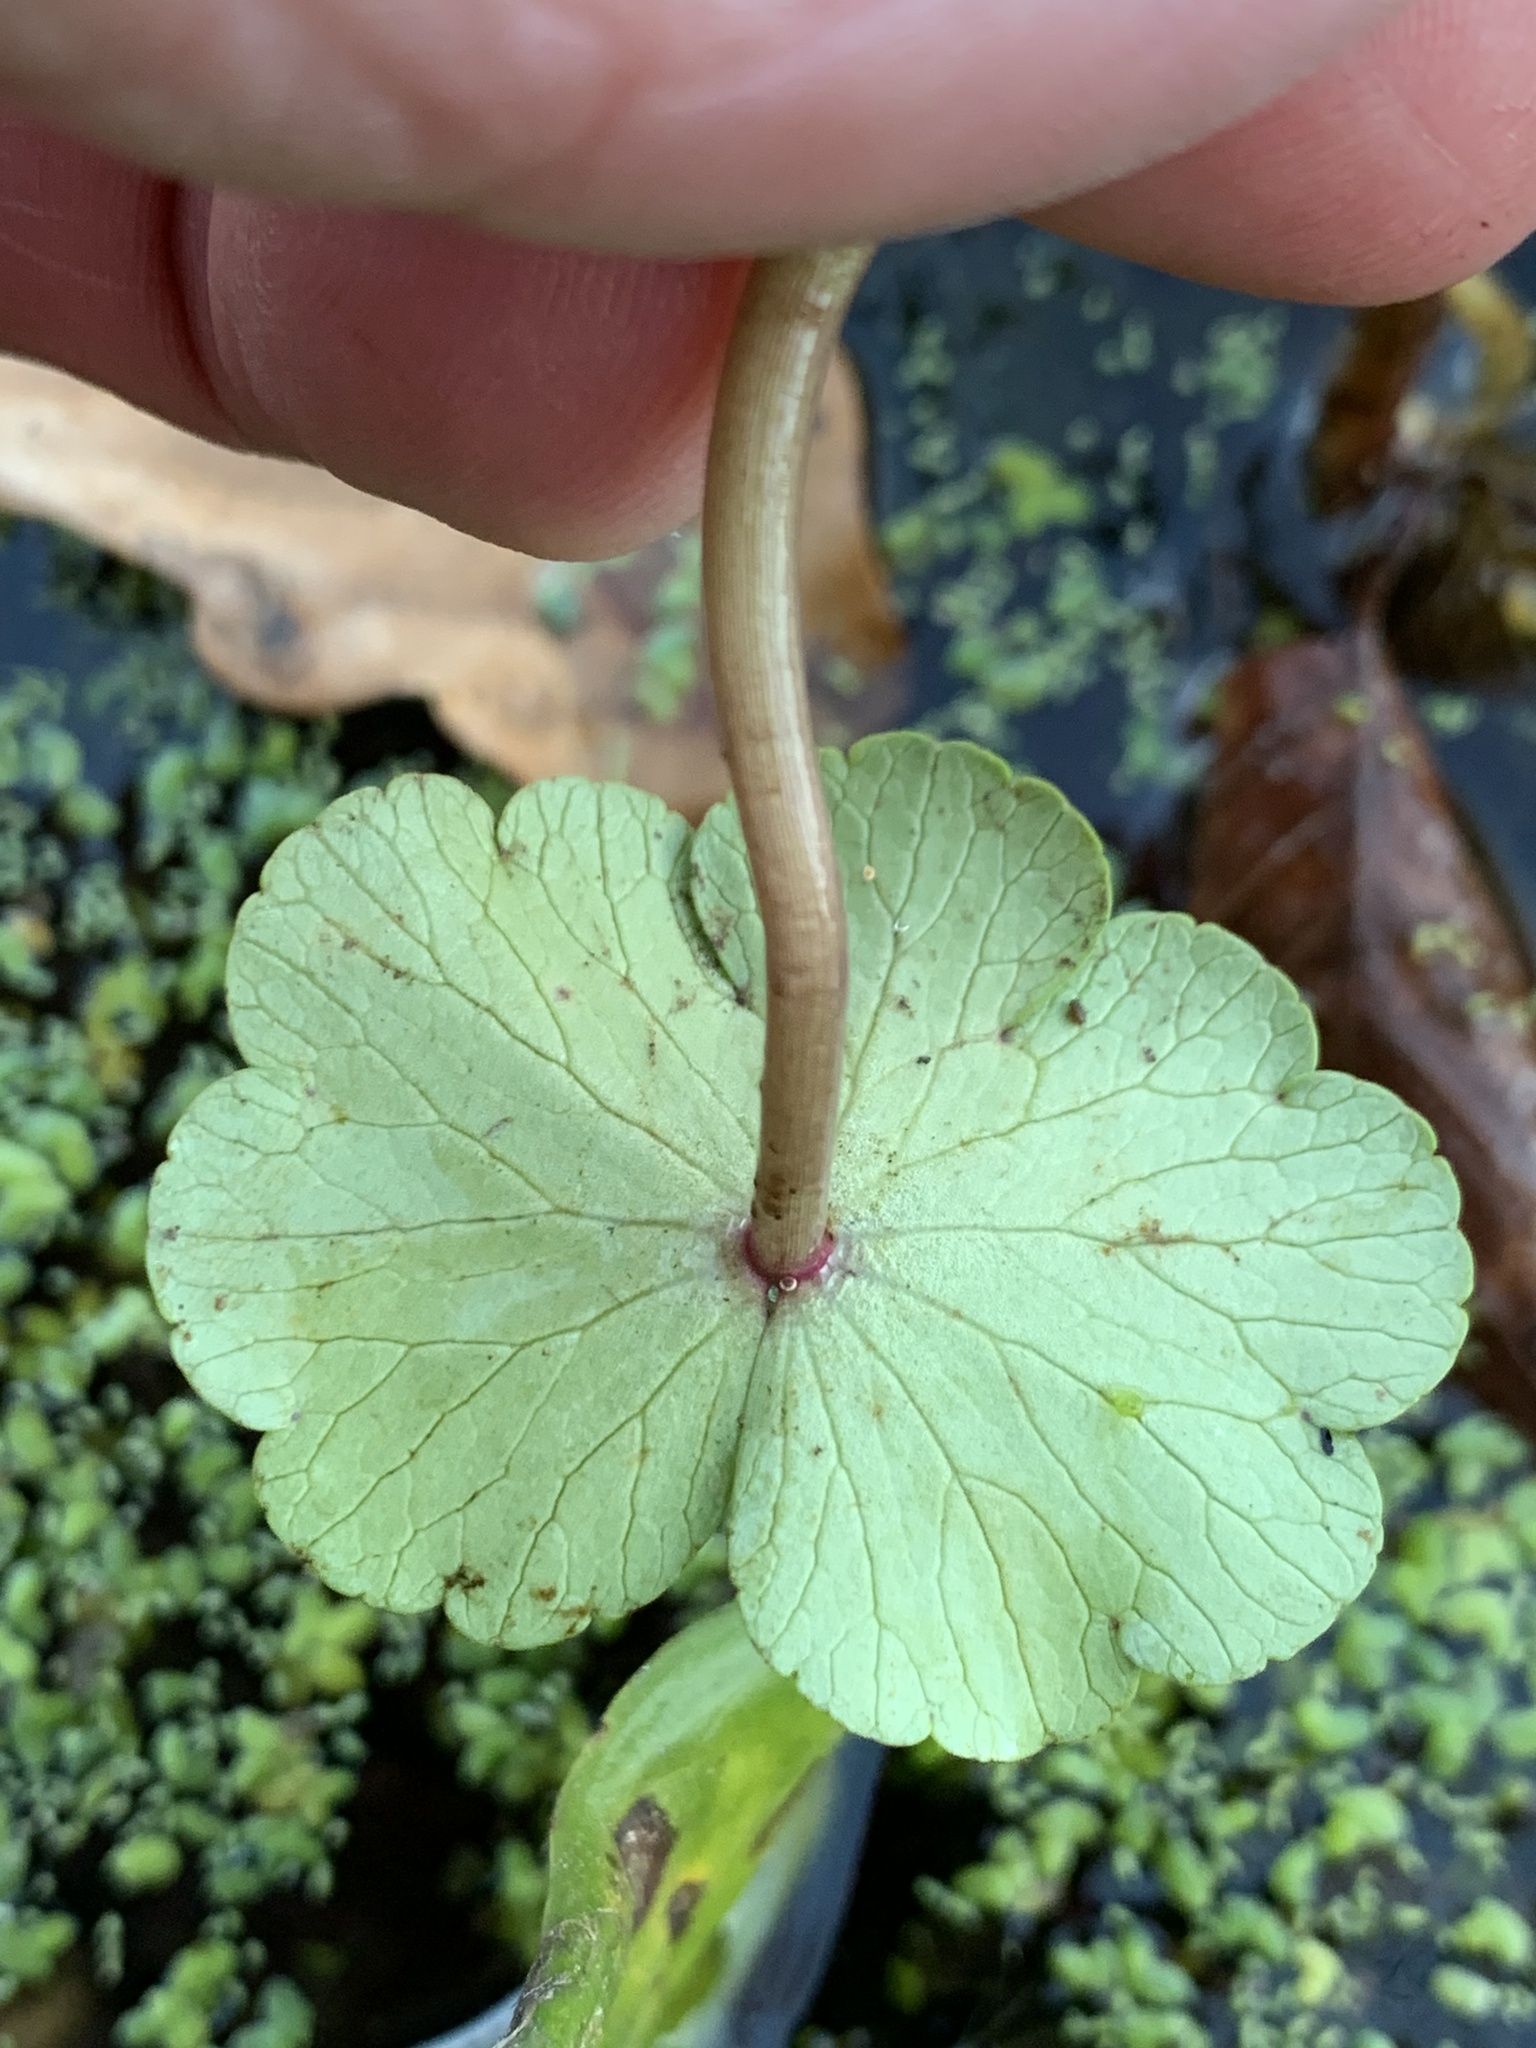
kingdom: Plantae
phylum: Tracheophyta
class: Magnoliopsida
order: Apiales
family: Araliaceae
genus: Hydrocotyle
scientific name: Hydrocotyle ranunculoides
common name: Floating pennywort
